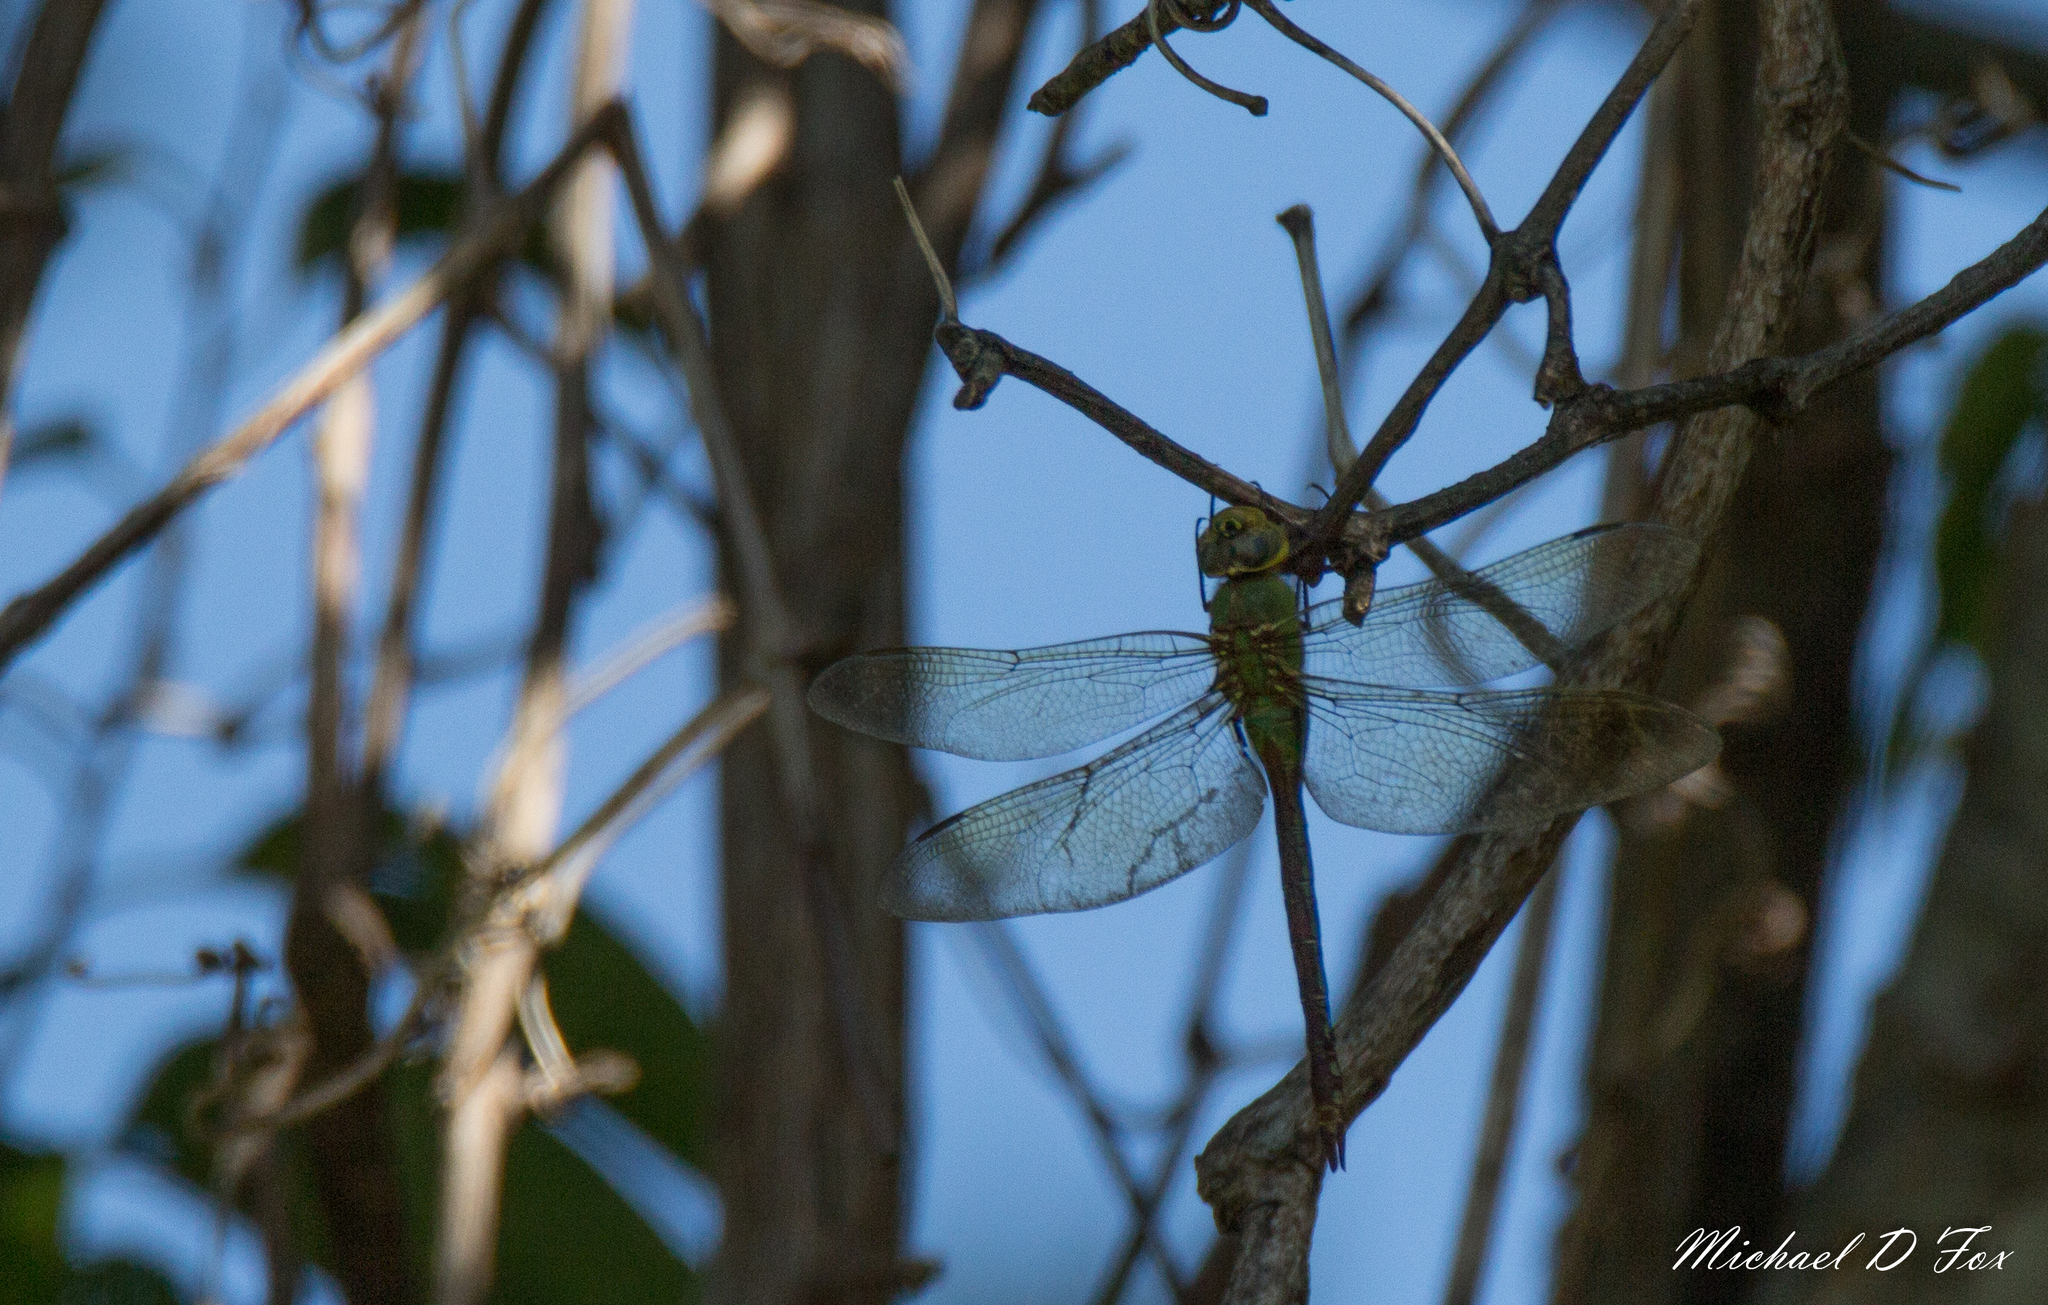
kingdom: Animalia
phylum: Arthropoda
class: Insecta
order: Odonata
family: Aeshnidae
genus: Anax
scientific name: Anax junius
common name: Common green darner
